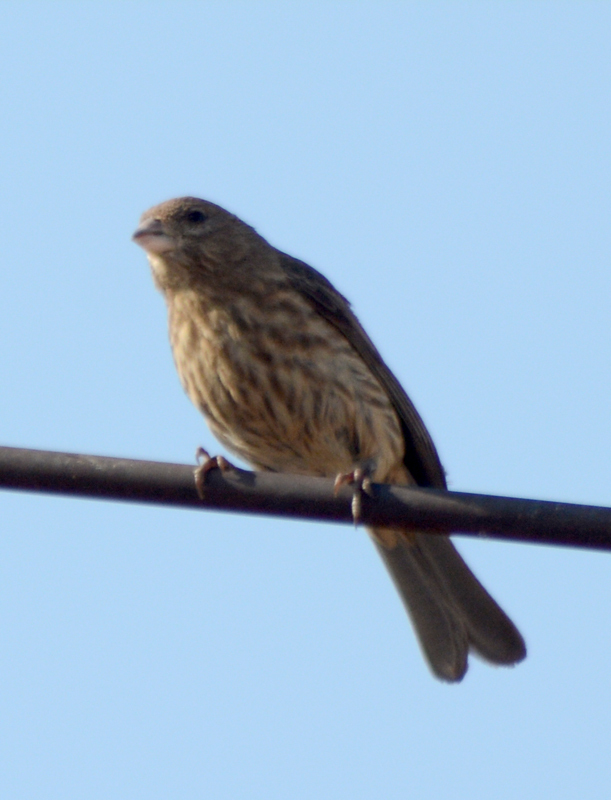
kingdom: Animalia
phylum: Chordata
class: Aves
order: Passeriformes
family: Fringillidae
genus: Haemorhous
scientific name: Haemorhous mexicanus
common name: House finch
